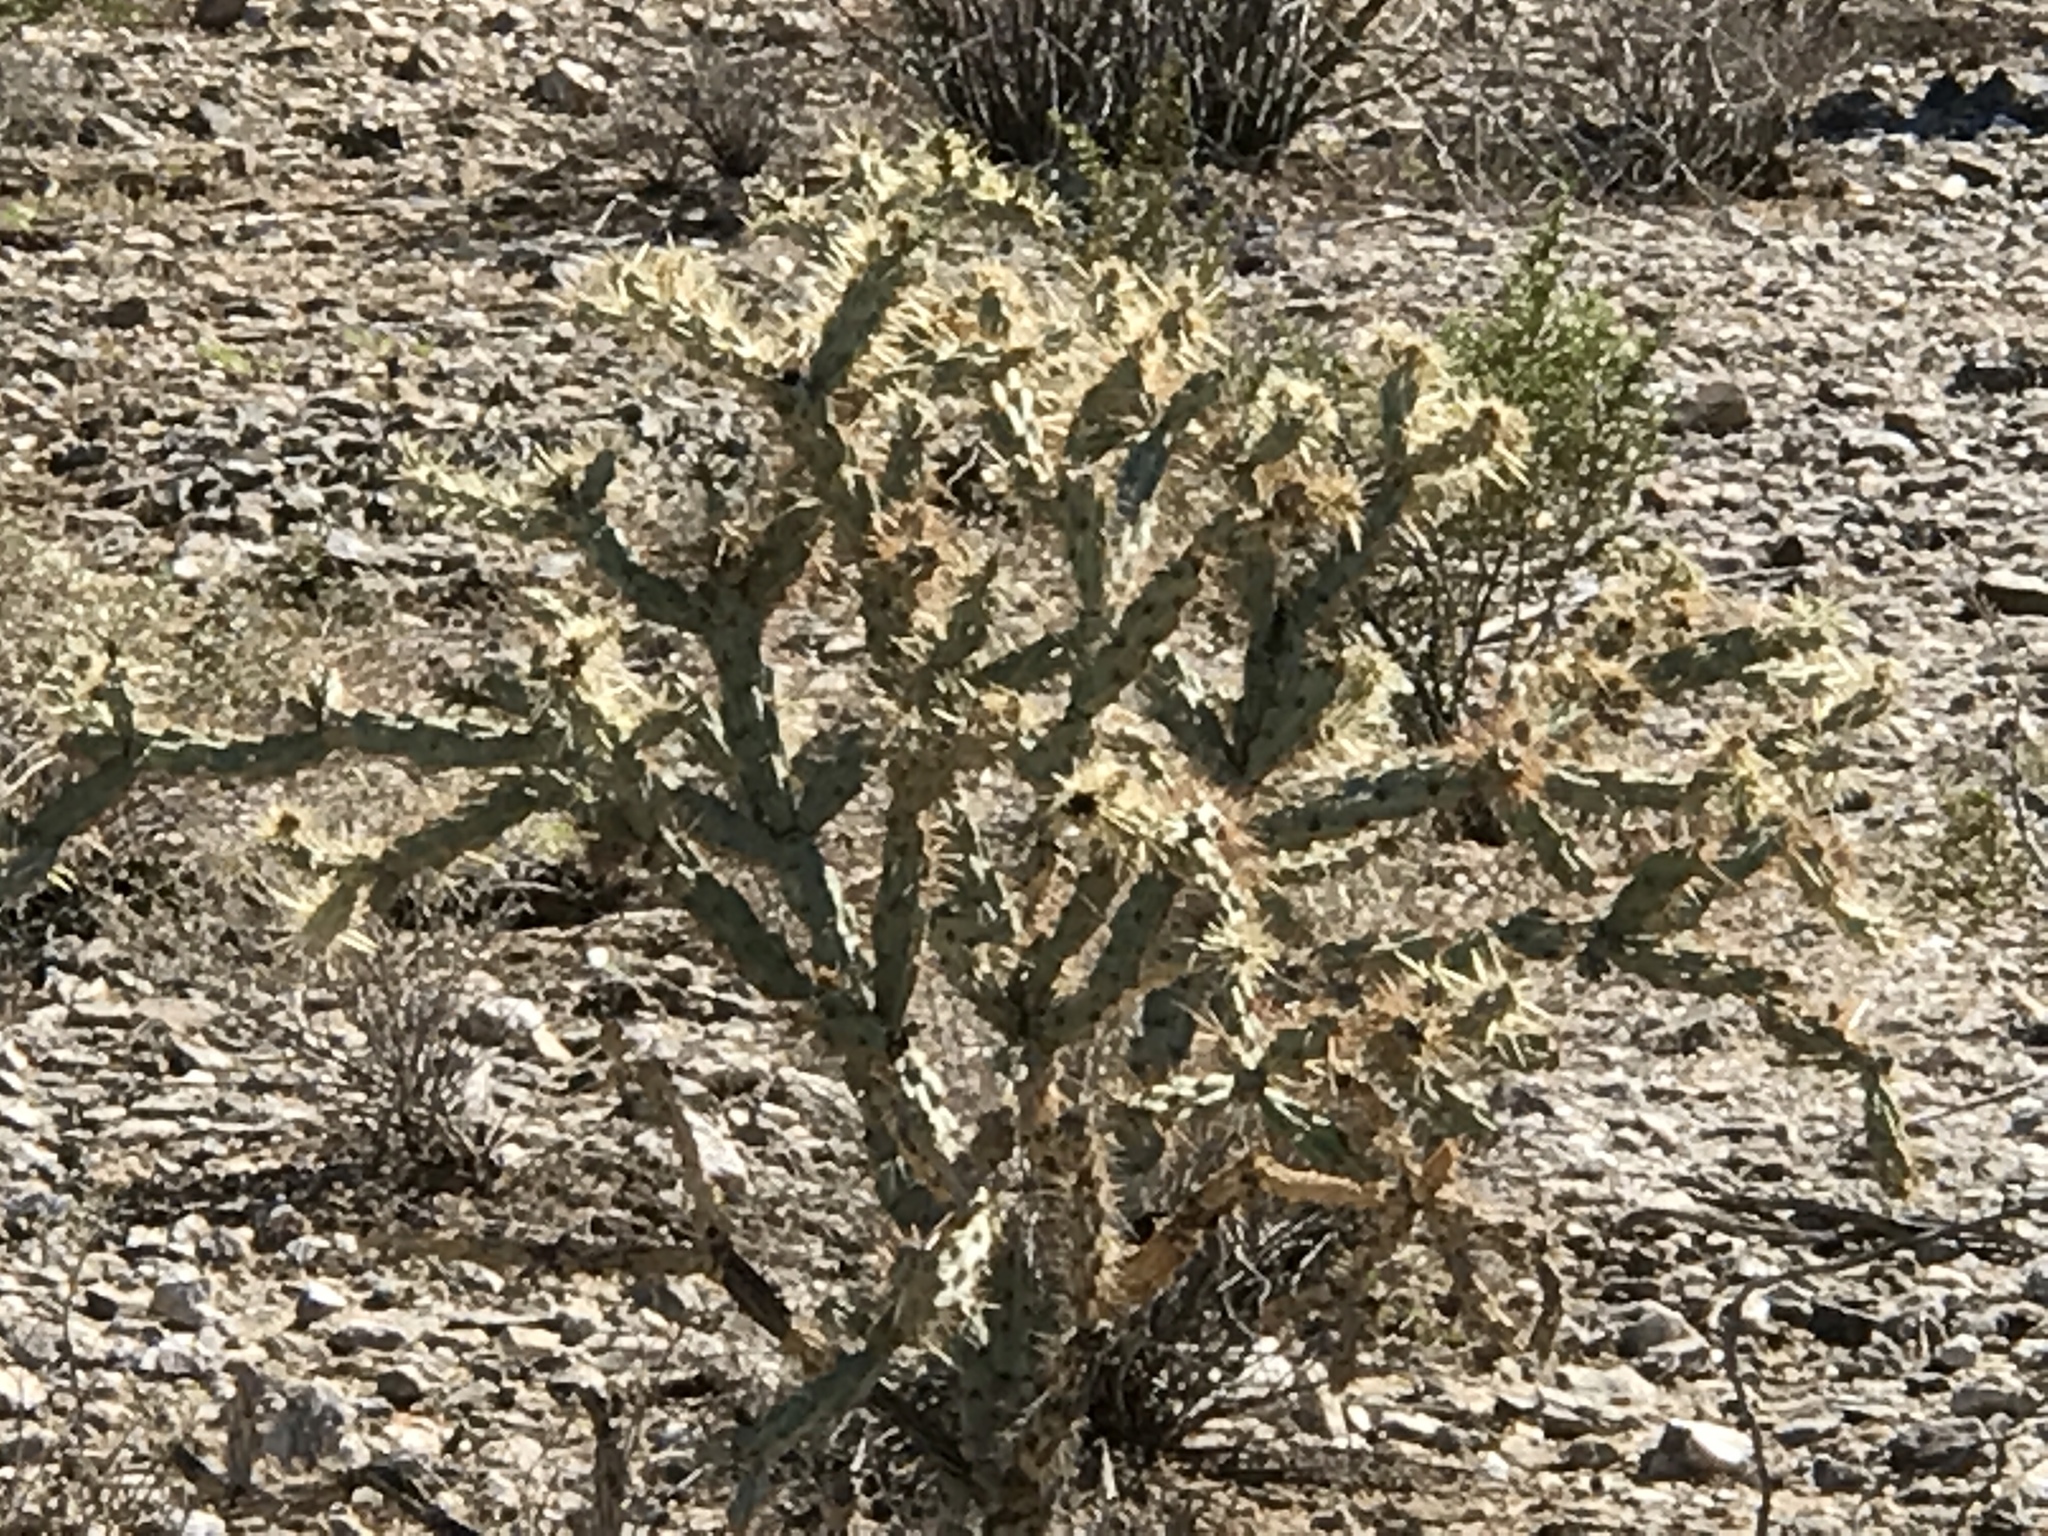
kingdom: Plantae
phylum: Tracheophyta
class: Magnoliopsida
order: Caryophyllales
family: Cactaceae
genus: Cylindropuntia
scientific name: Cylindropuntia acanthocarpa
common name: Buckhorn cholla
